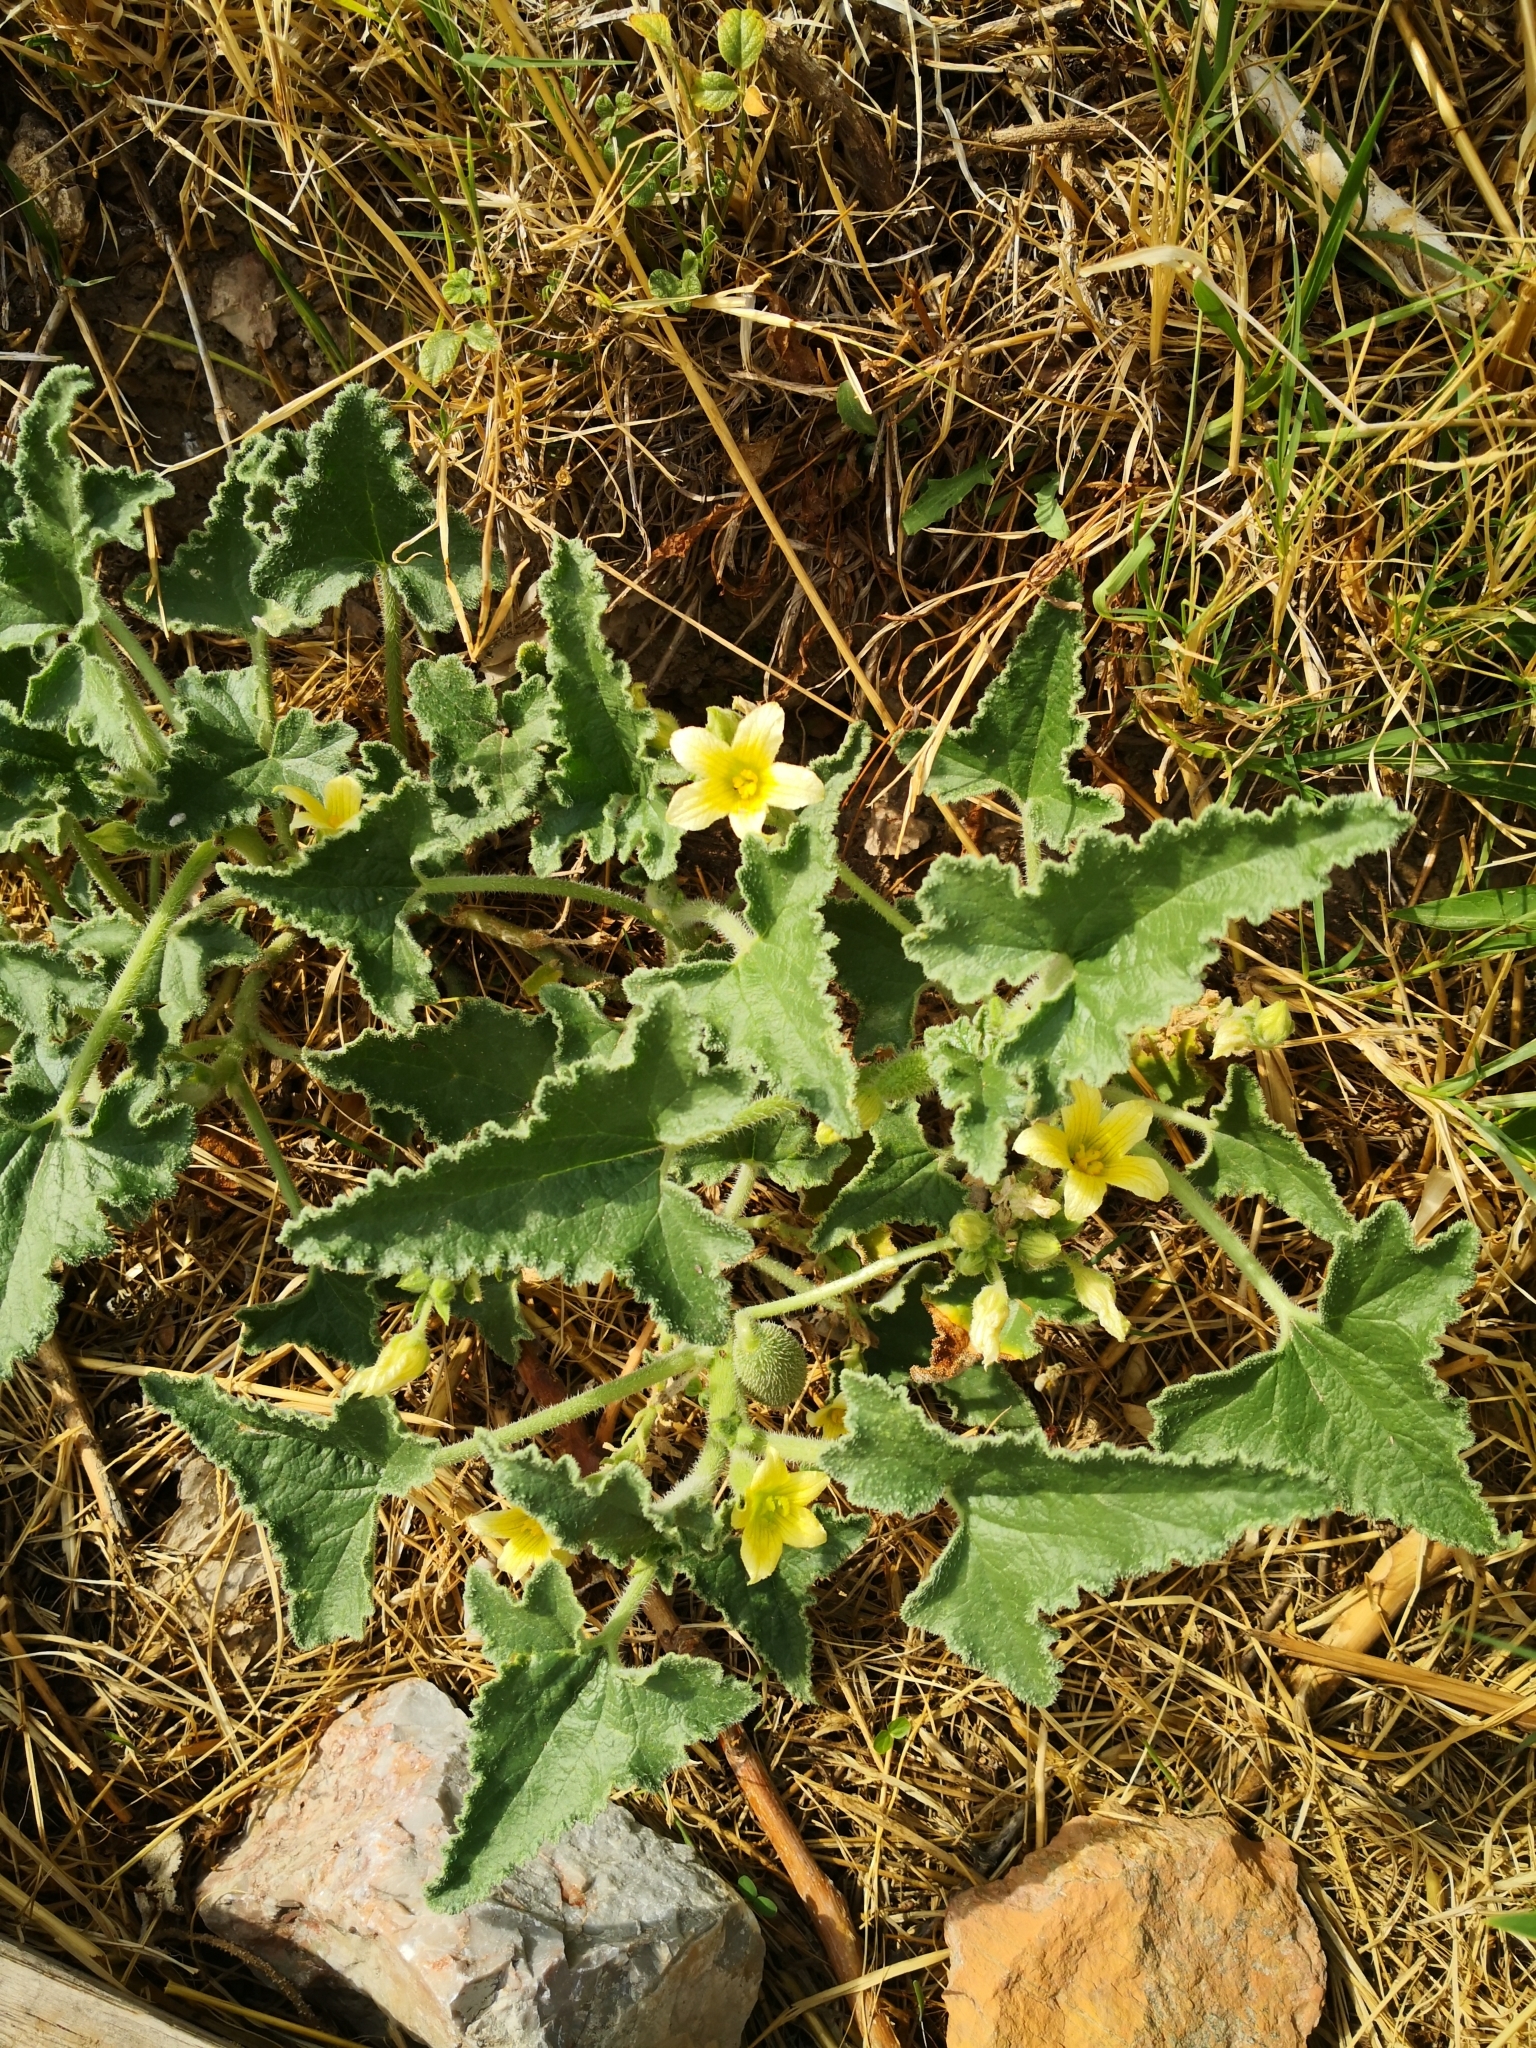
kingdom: Plantae
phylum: Tracheophyta
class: Magnoliopsida
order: Cucurbitales
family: Cucurbitaceae
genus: Ecballium
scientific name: Ecballium elaterium
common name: Squirting cucumber
